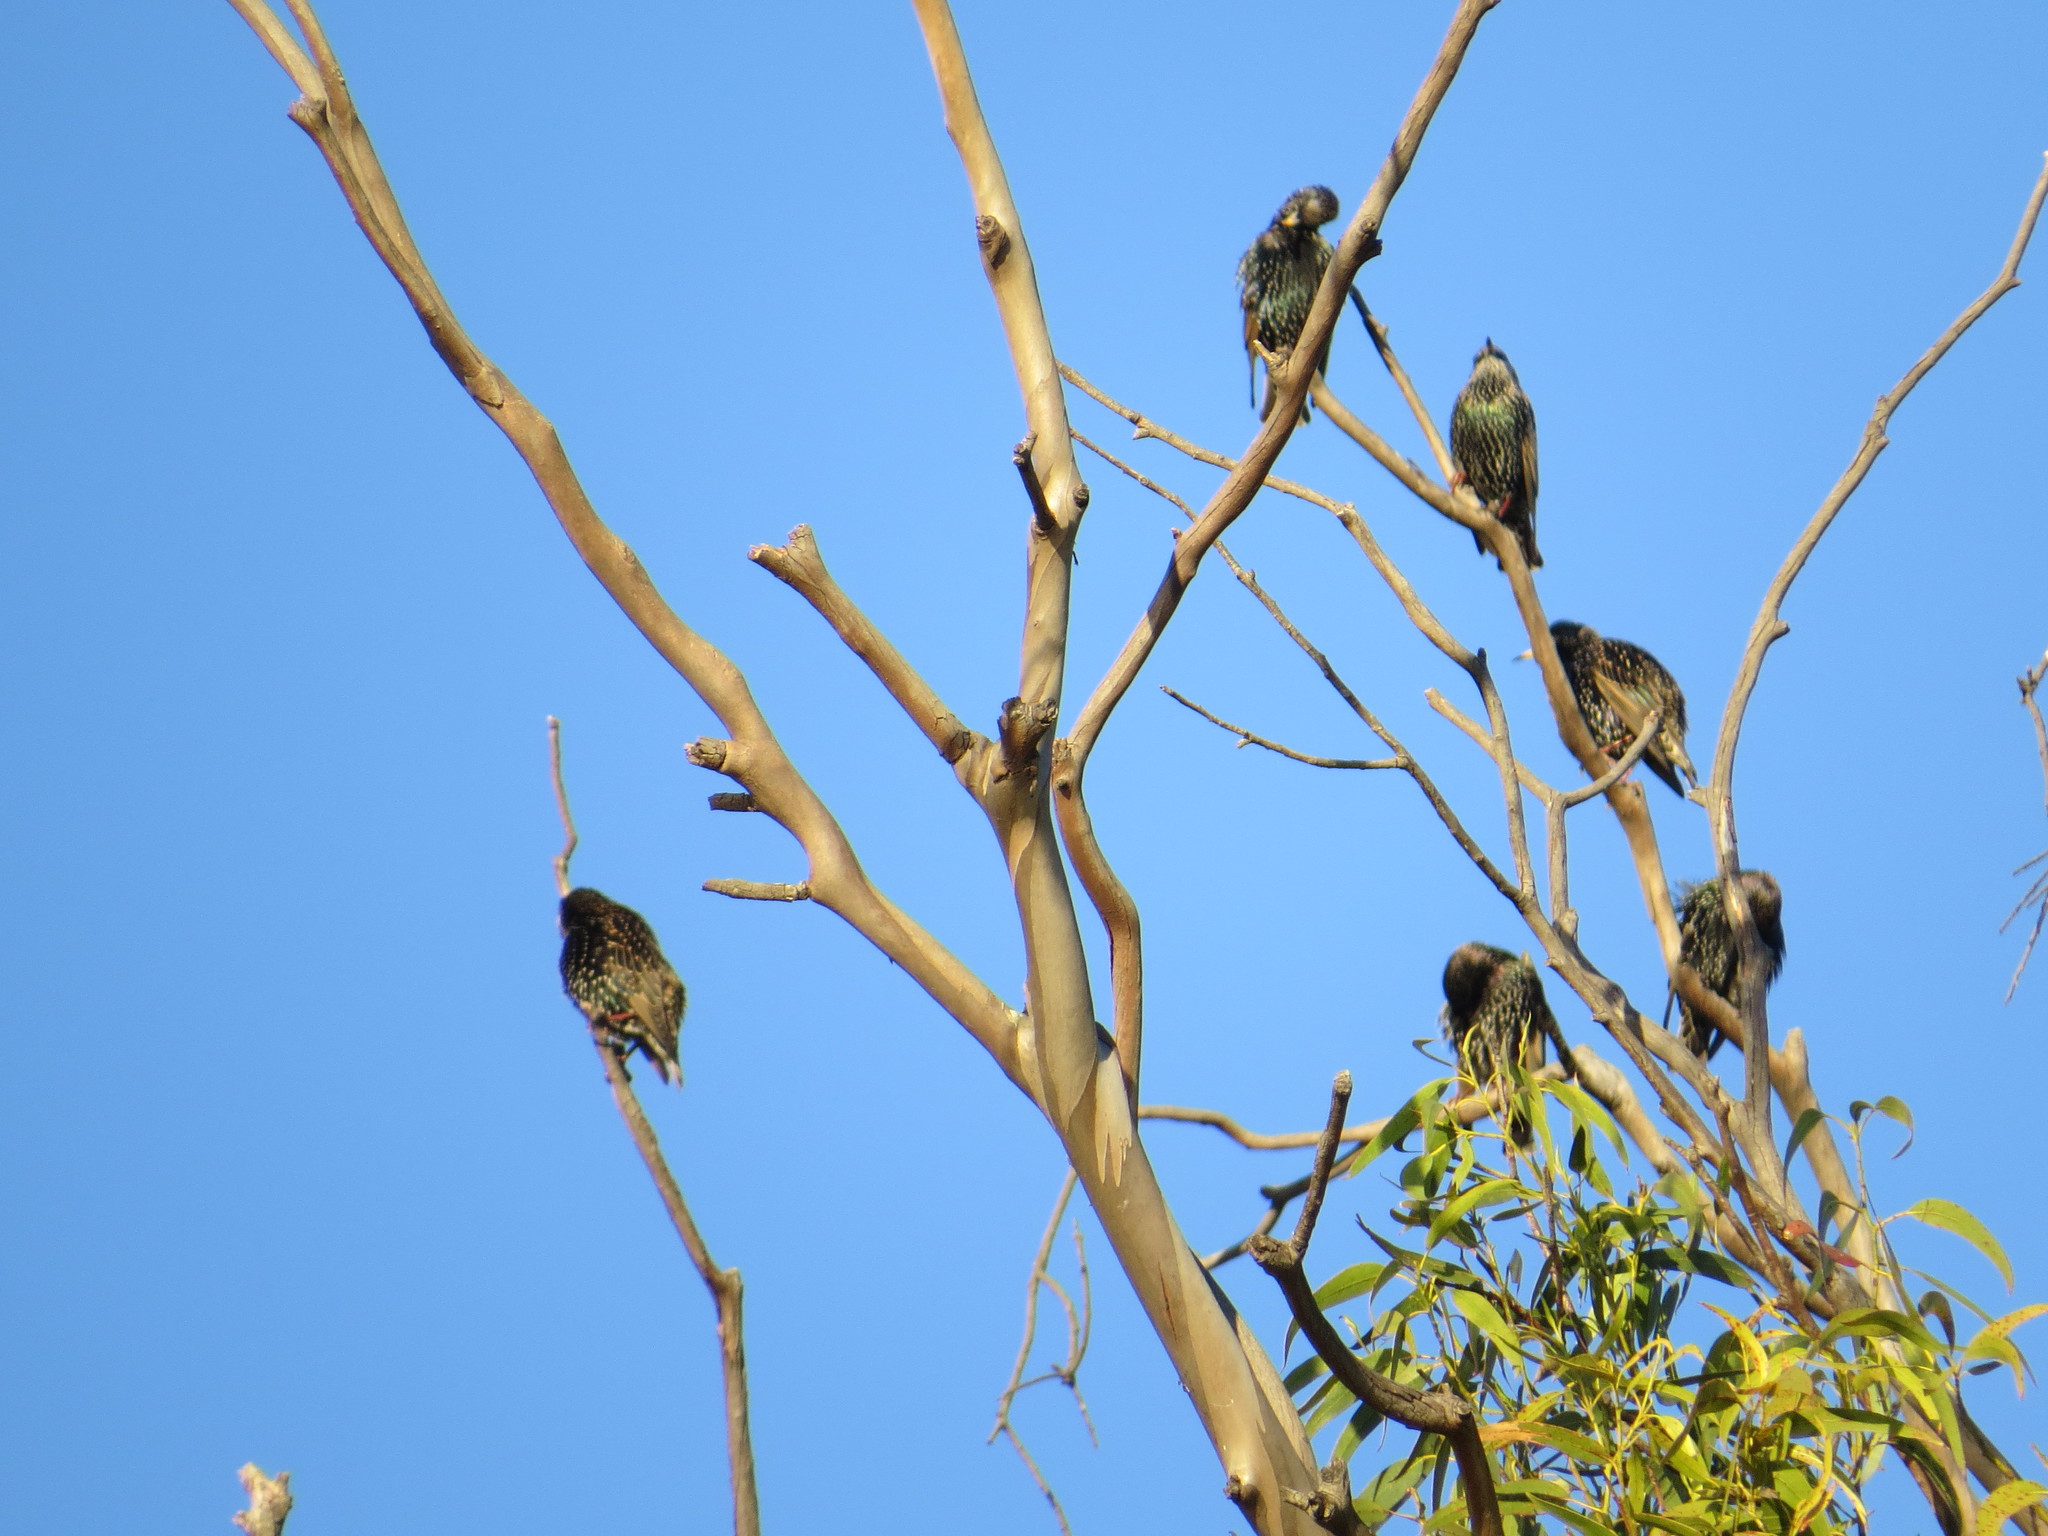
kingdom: Animalia
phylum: Chordata
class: Aves
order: Passeriformes
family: Sturnidae
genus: Sturnus
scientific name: Sturnus vulgaris
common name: Common starling
